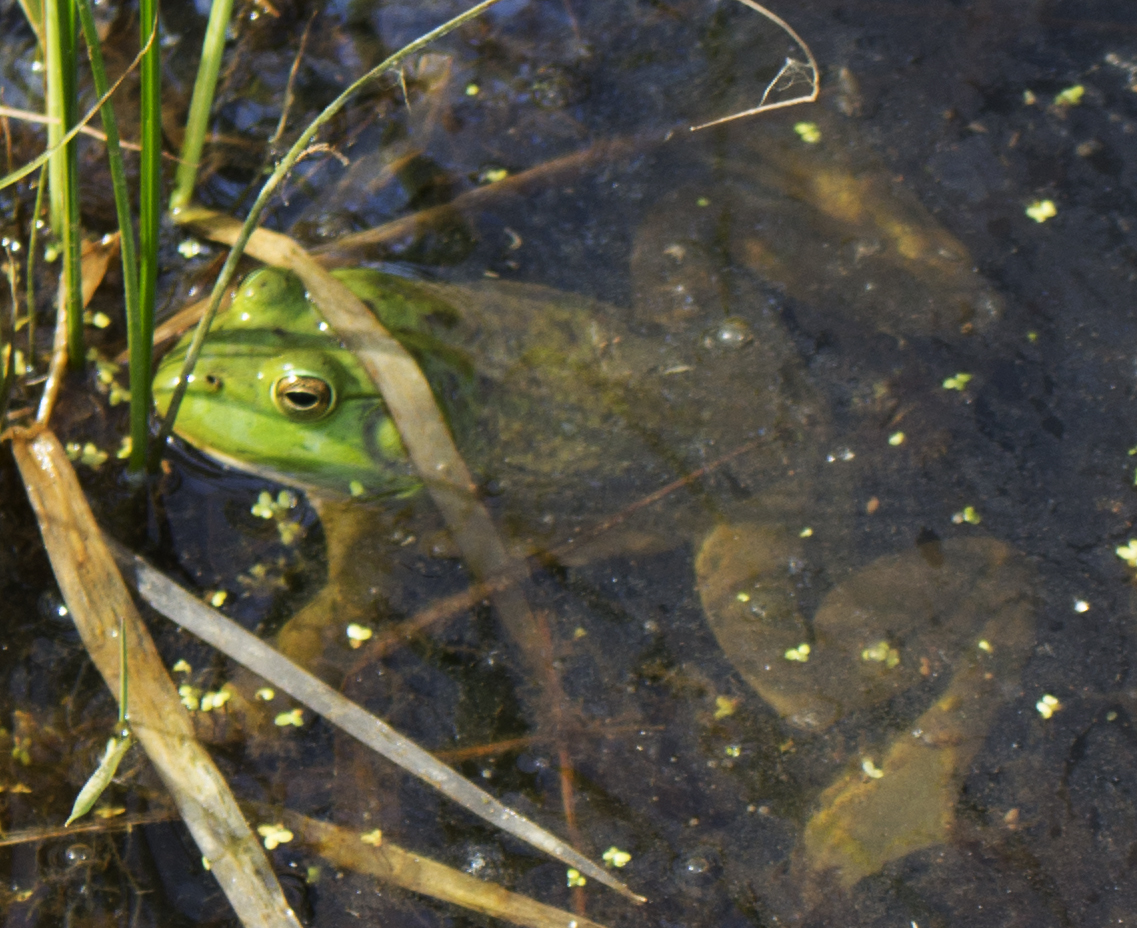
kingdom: Animalia
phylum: Chordata
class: Amphibia
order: Anura
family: Ranidae
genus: Lithobates
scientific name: Lithobates catesbeianus
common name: American bullfrog
